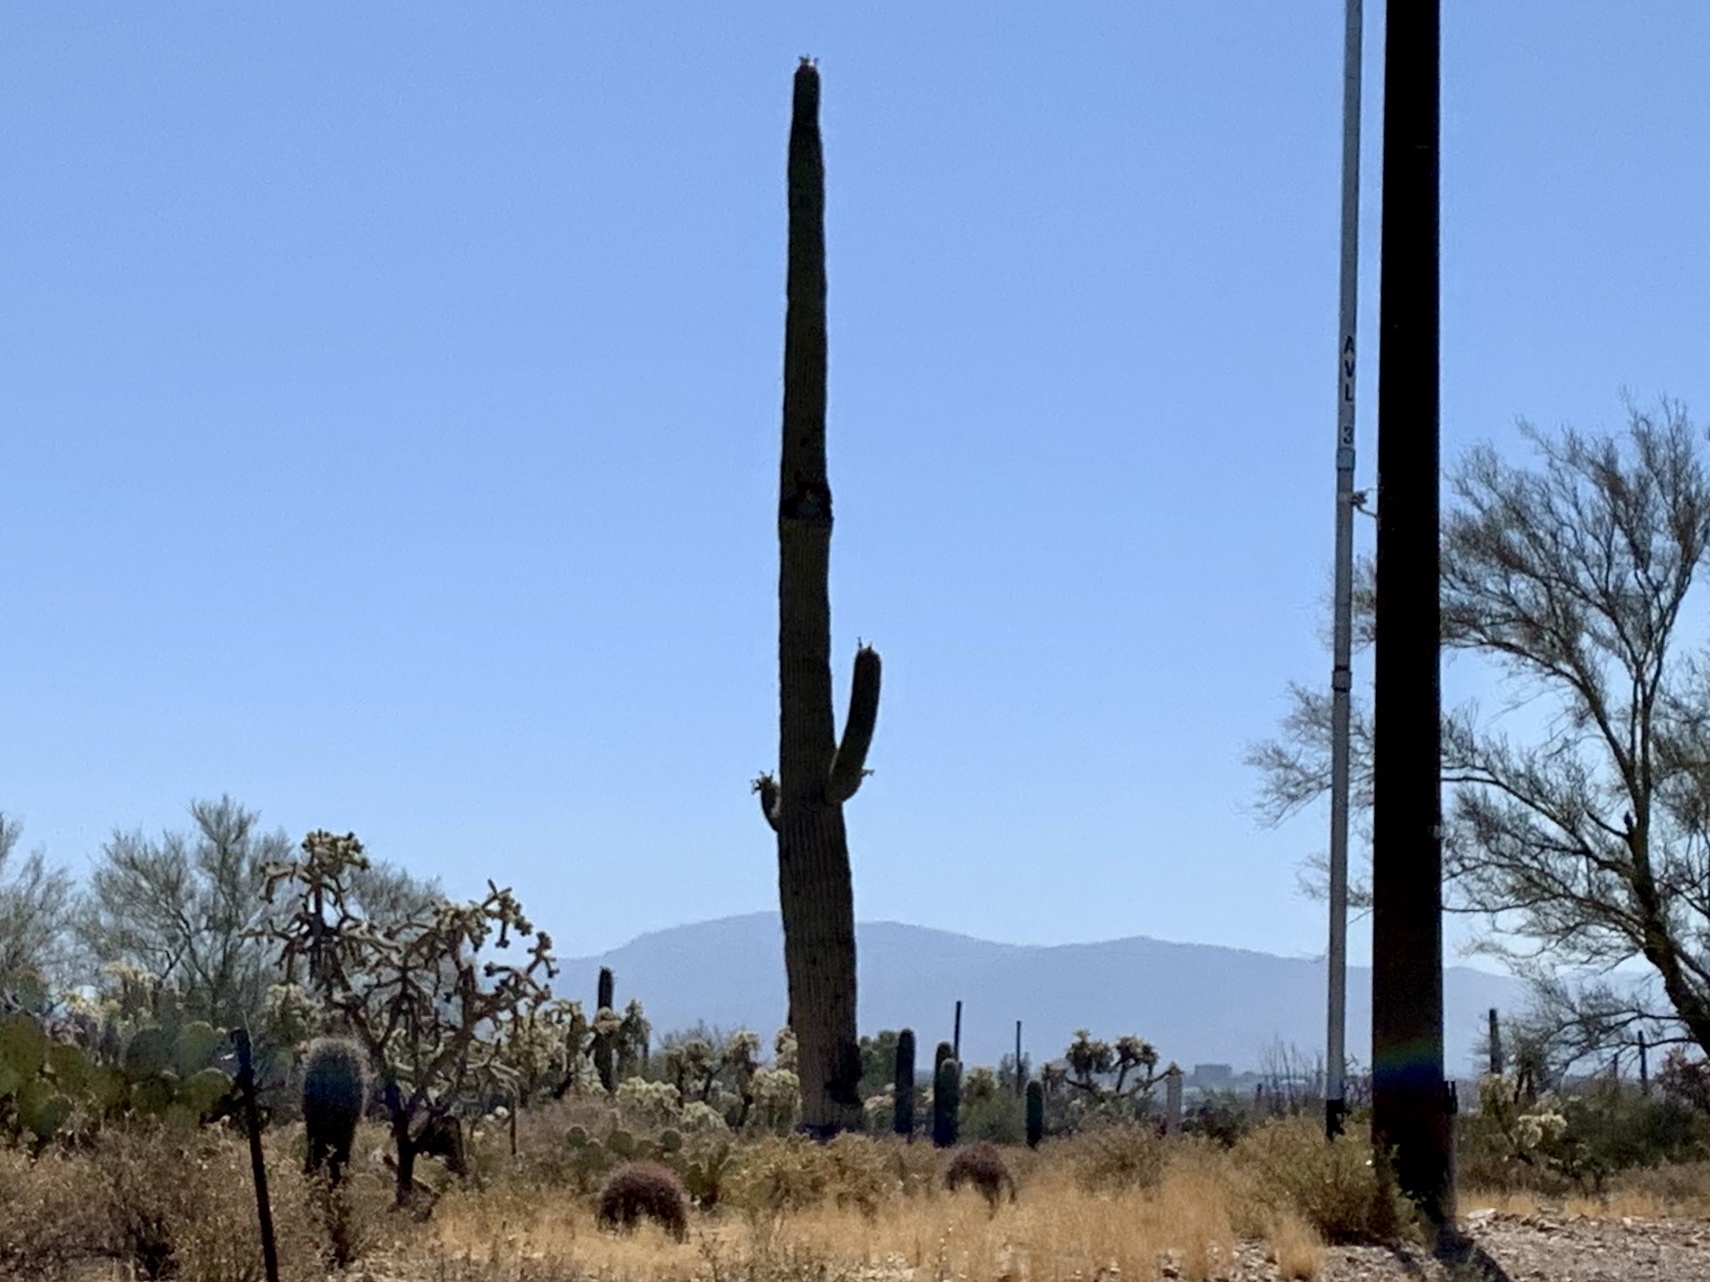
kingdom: Plantae
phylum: Tracheophyta
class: Magnoliopsida
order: Caryophyllales
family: Cactaceae
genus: Carnegiea
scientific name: Carnegiea gigantea
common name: Saguaro
